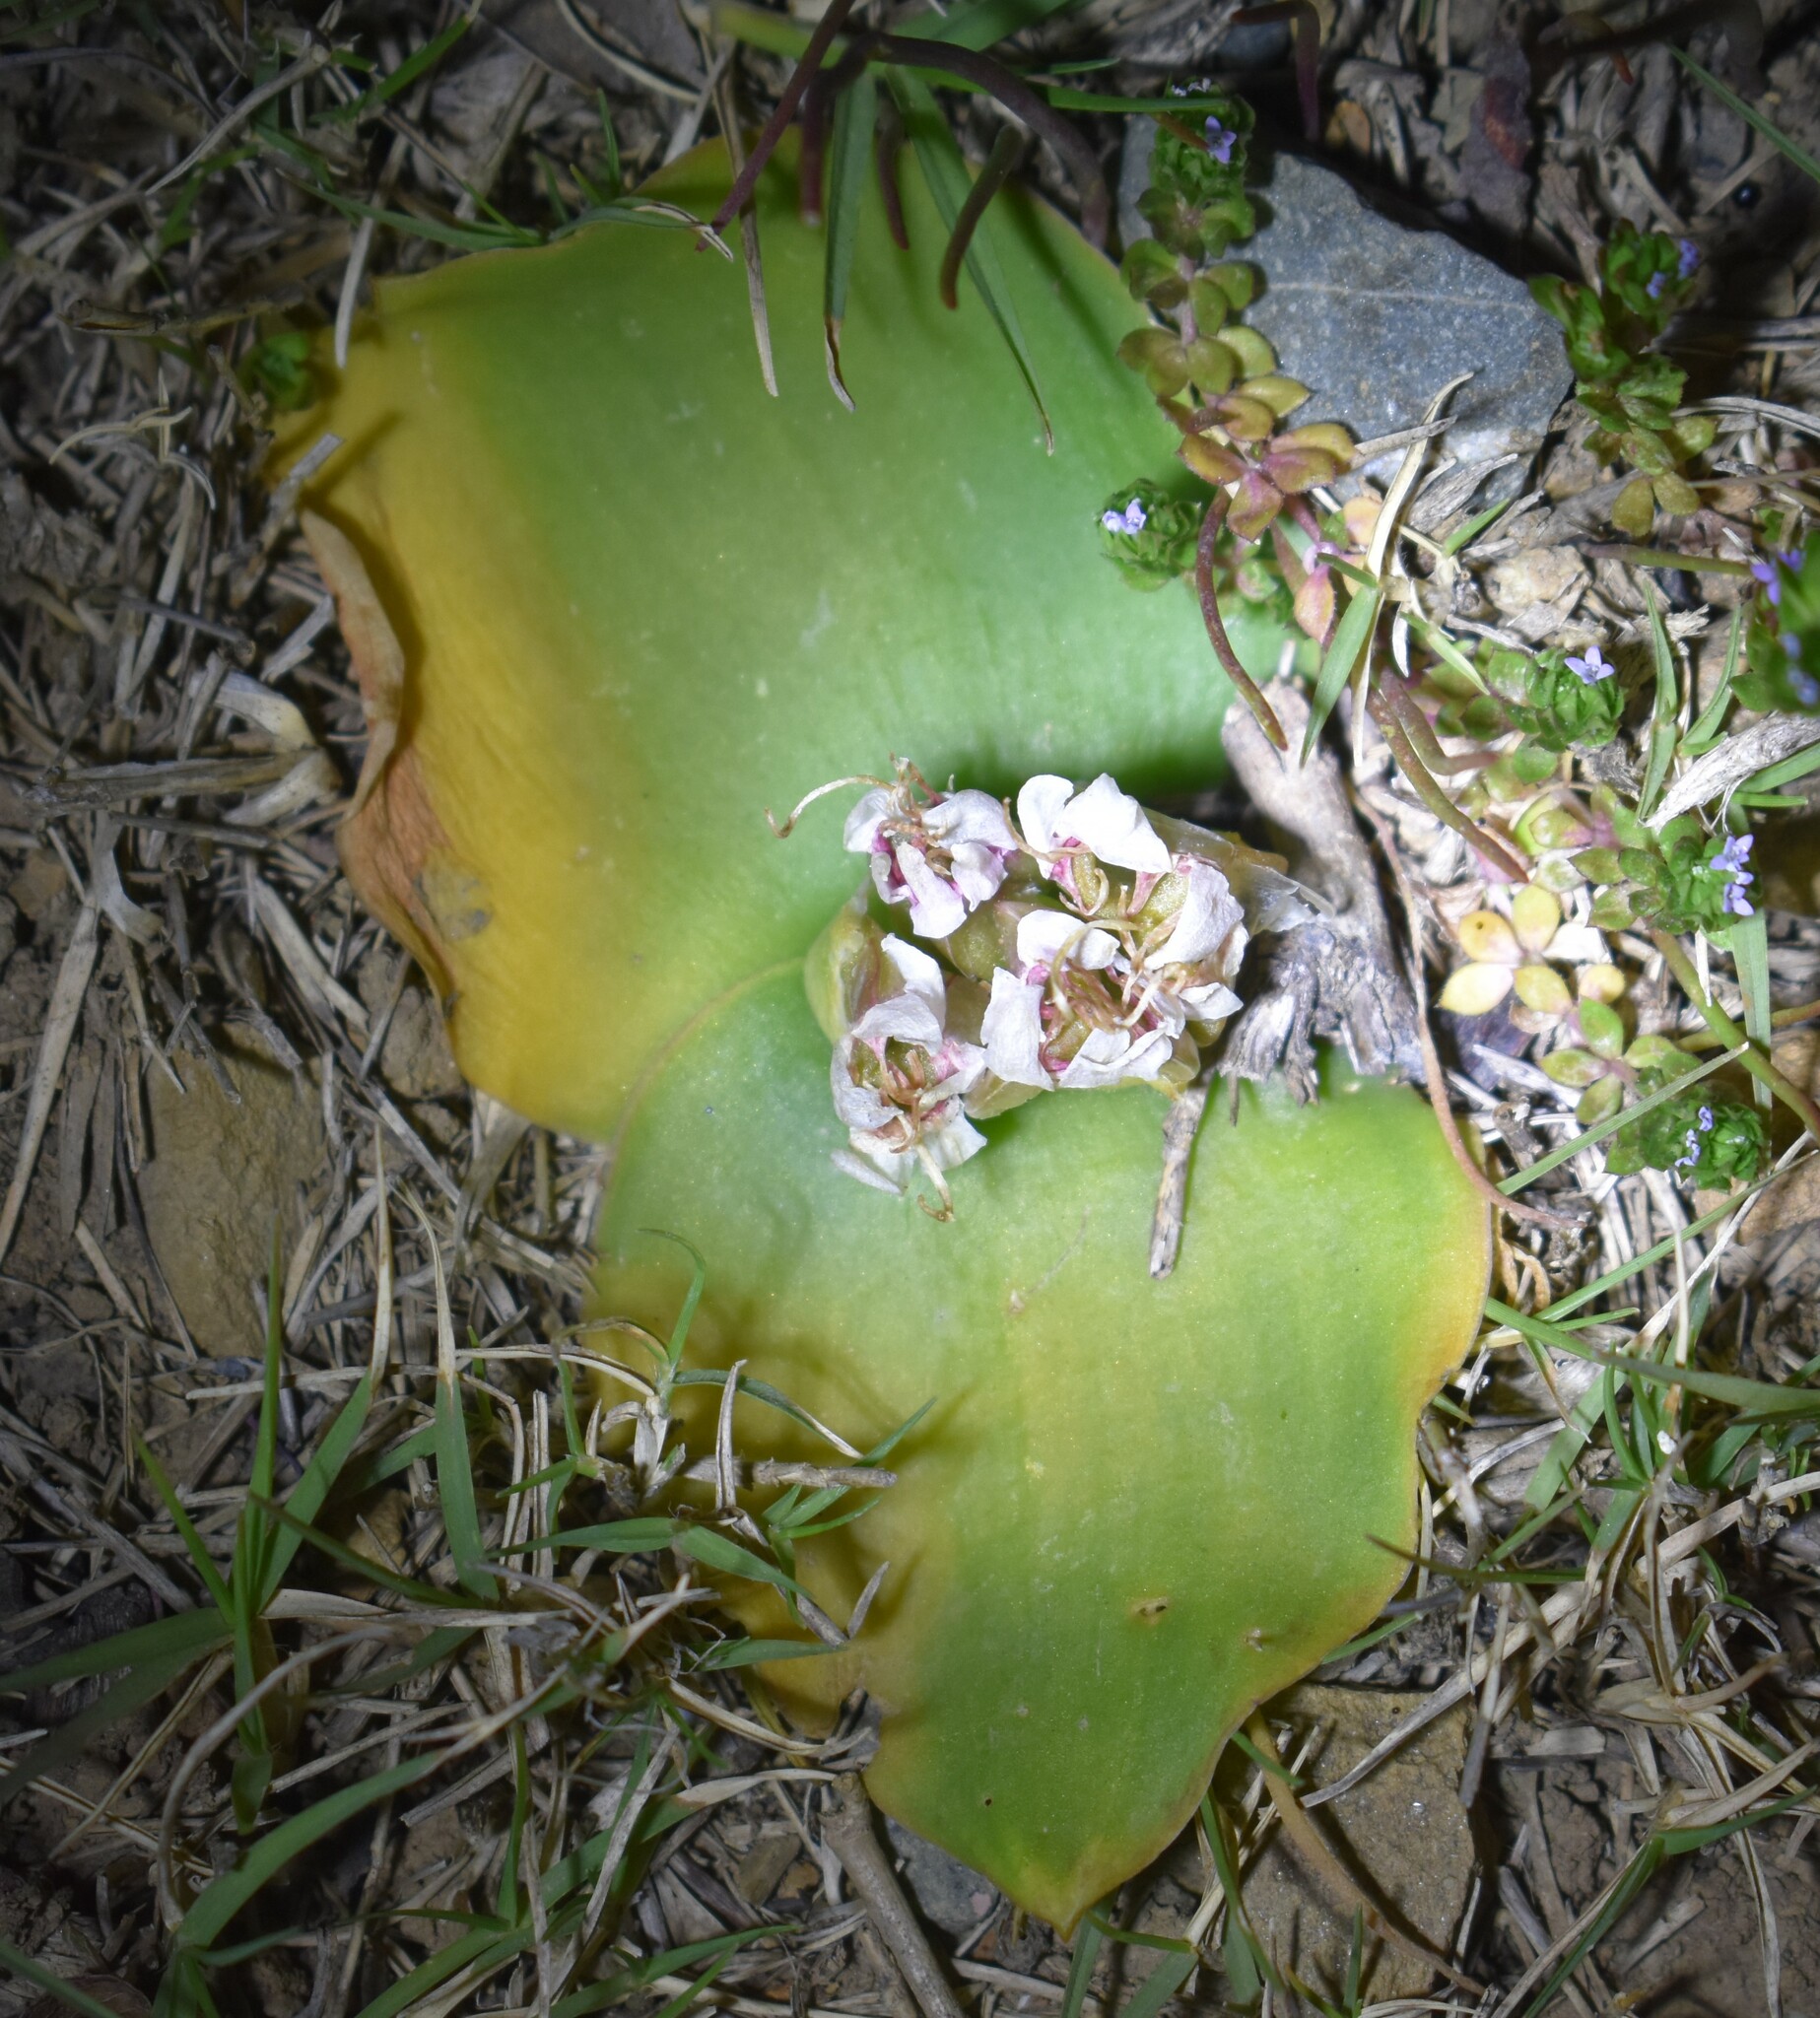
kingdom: Plantae
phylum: Tracheophyta
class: Liliopsida
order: Asparagales
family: Asparagaceae
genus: Massonia
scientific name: Massonia depressa
